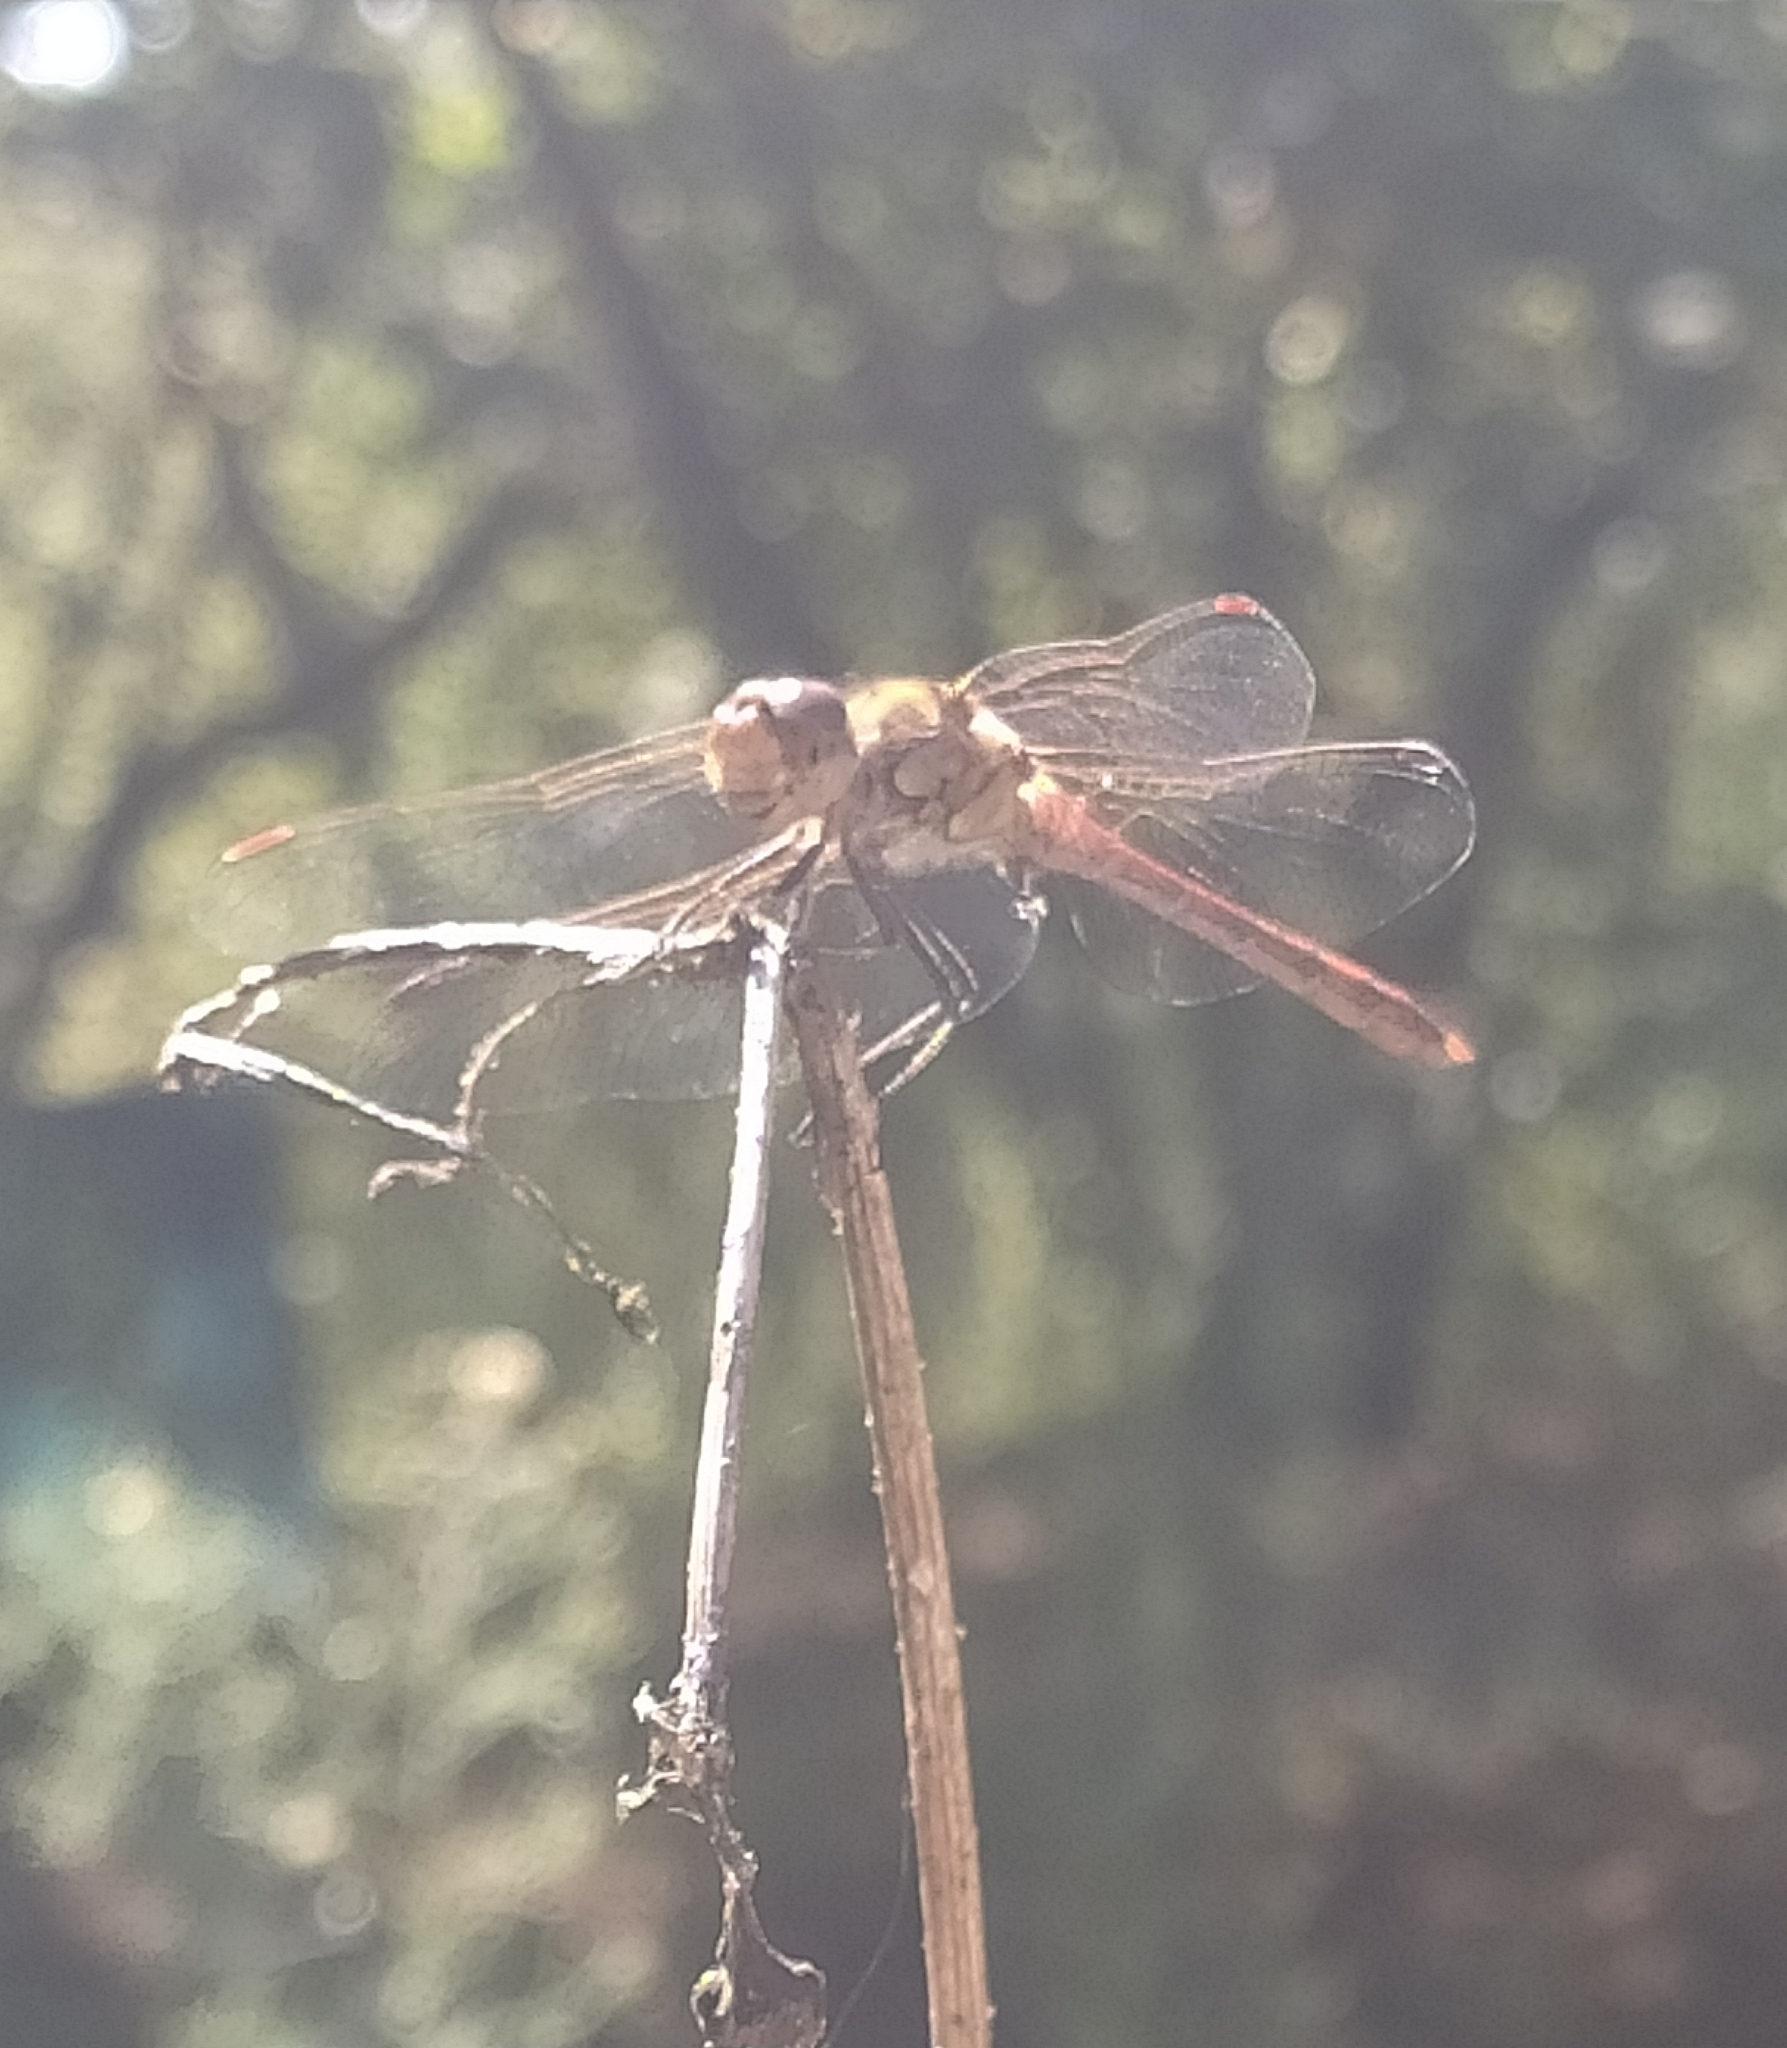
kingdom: Animalia
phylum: Arthropoda
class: Insecta
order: Odonata
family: Libellulidae
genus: Sympetrum
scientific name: Sympetrum striolatum
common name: Common darter
